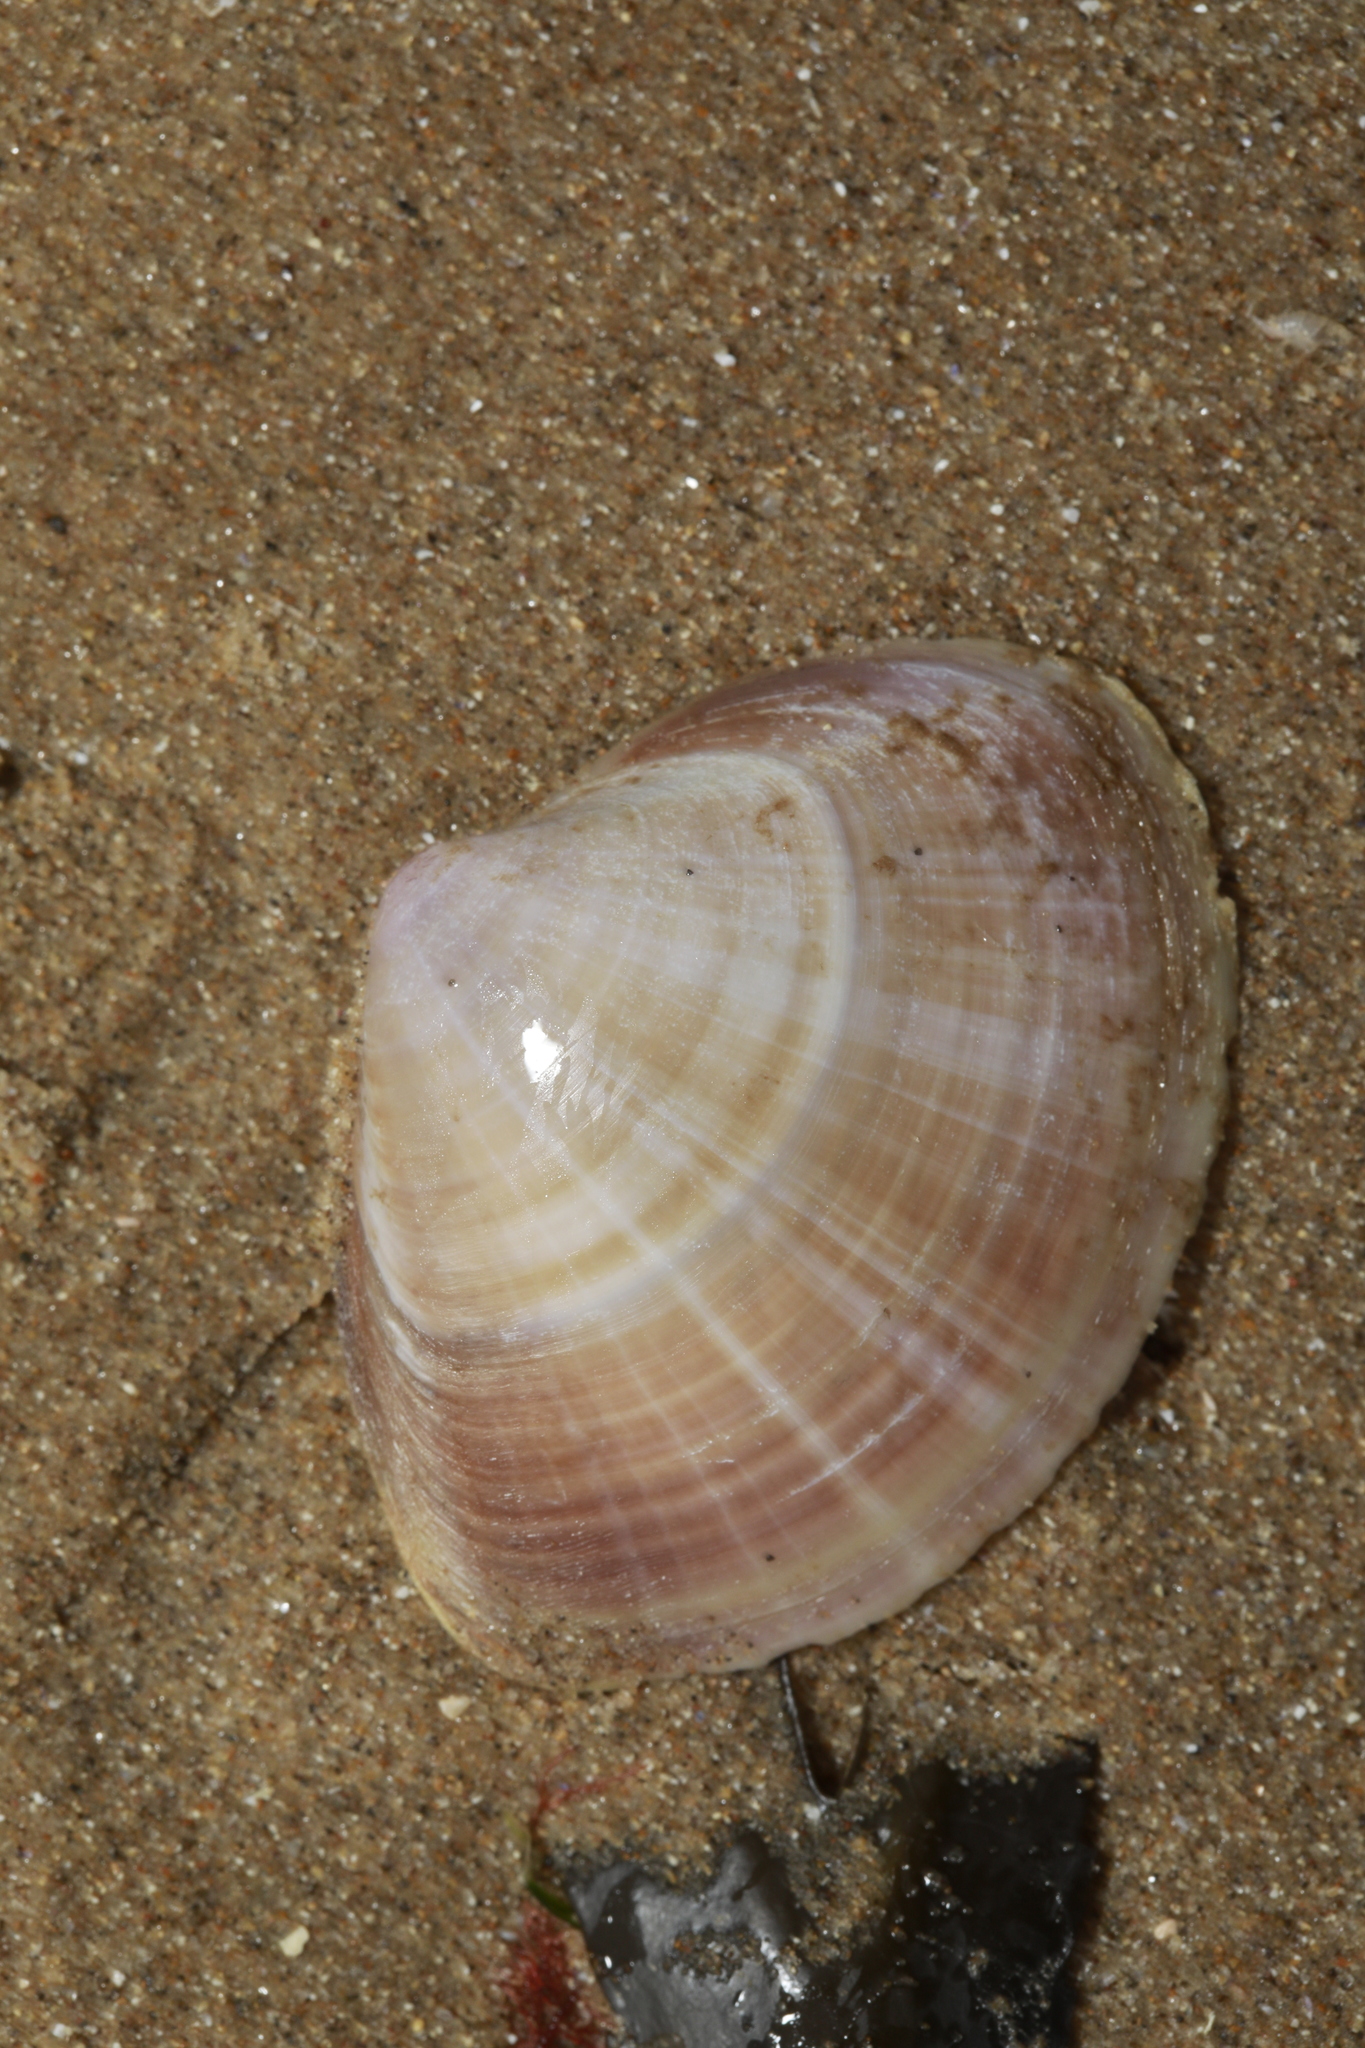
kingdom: Animalia
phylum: Mollusca
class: Bivalvia
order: Venerida
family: Mactridae
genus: Mactra
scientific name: Mactra stultorum
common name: Rayed trough shell
